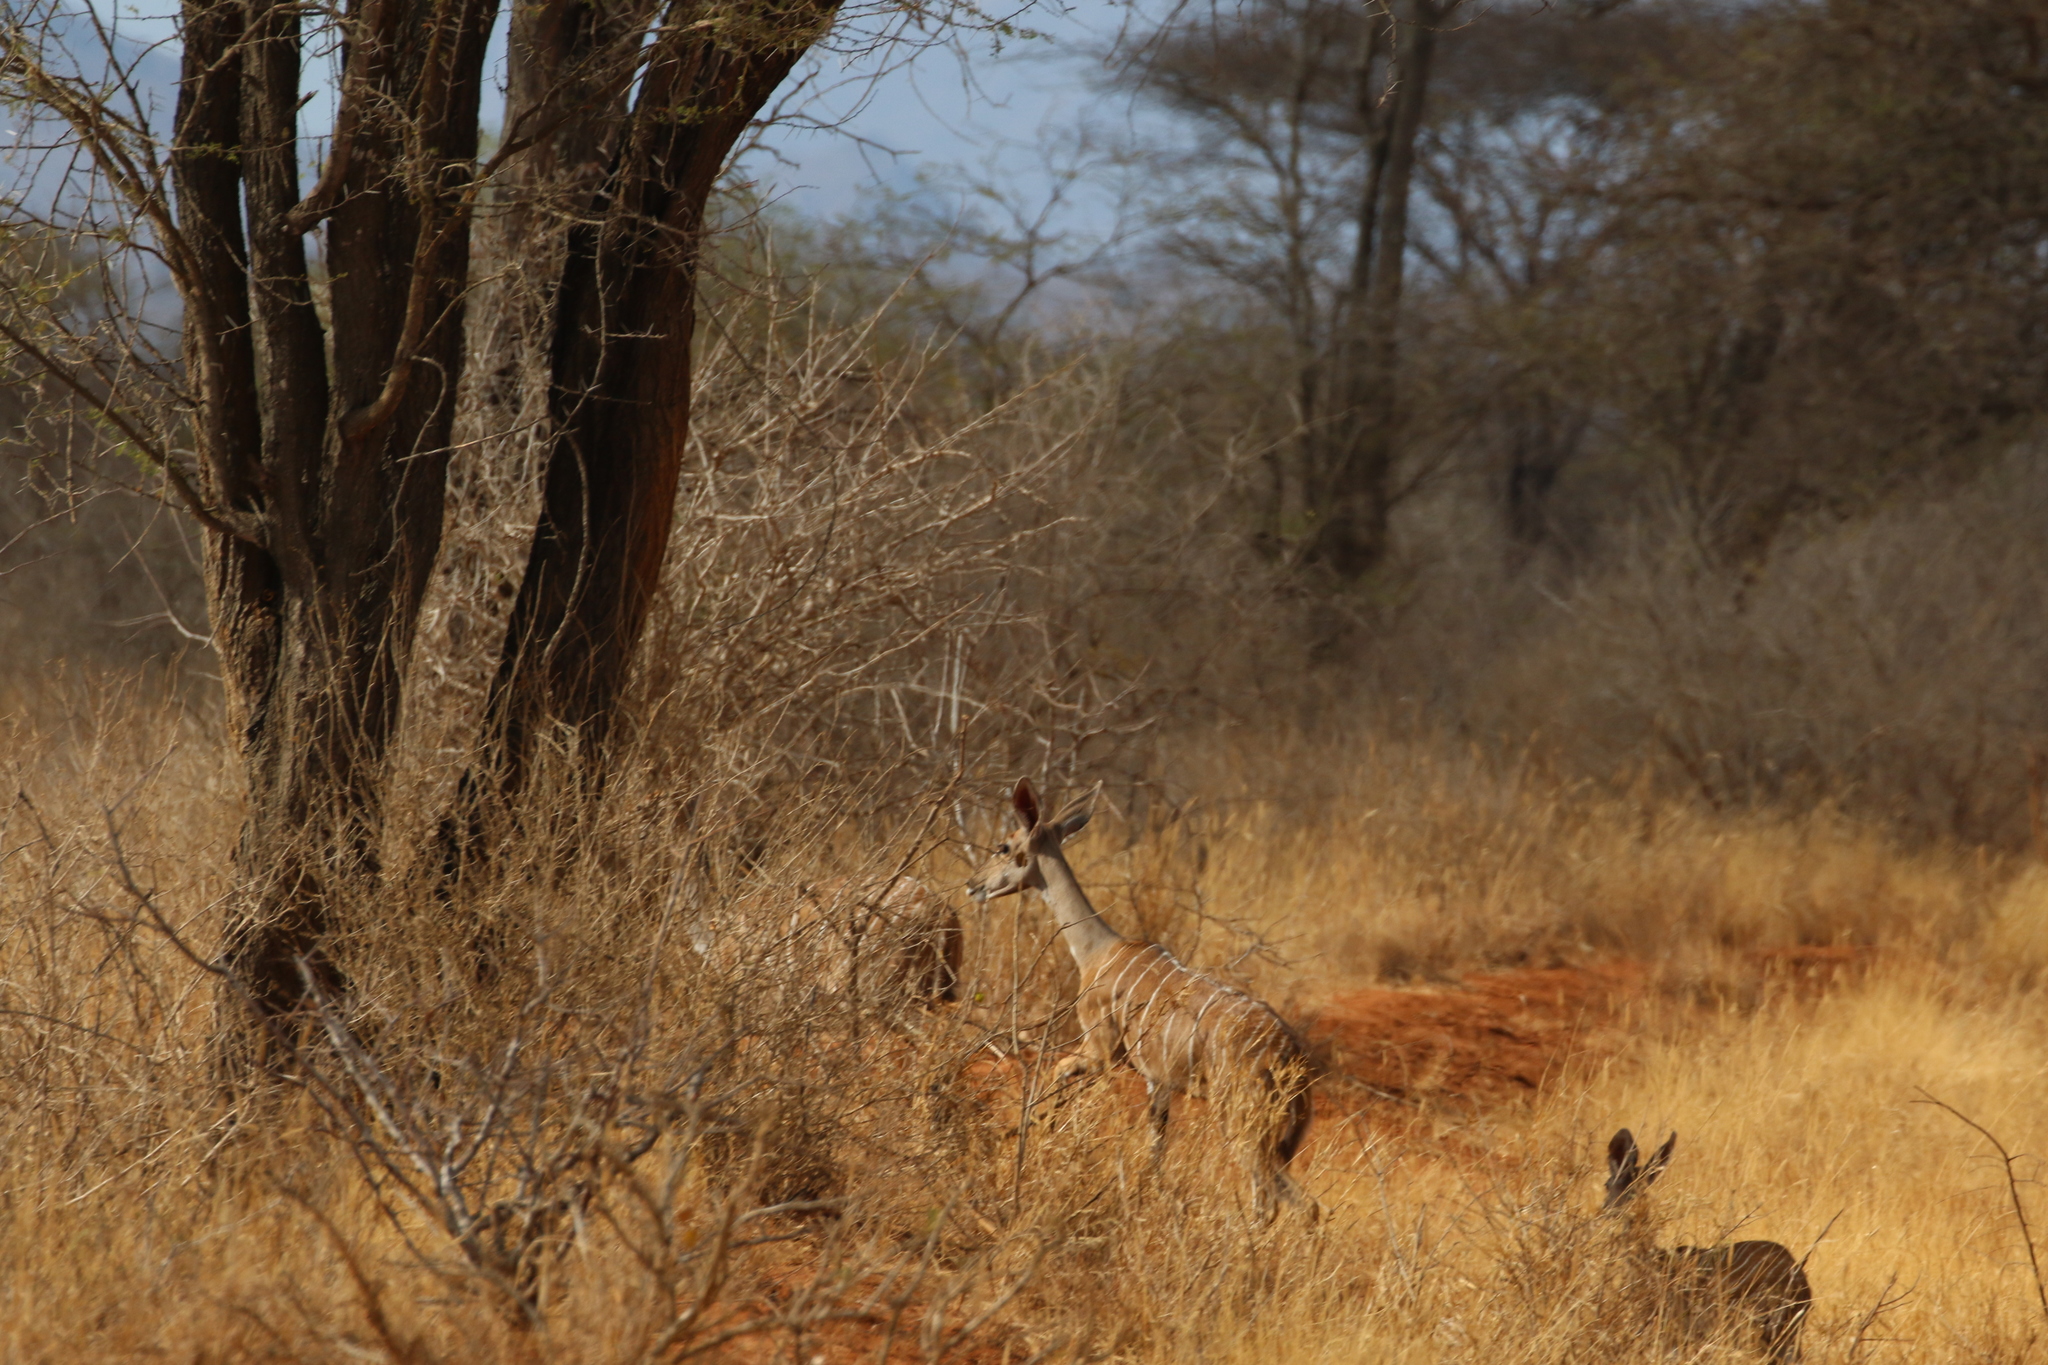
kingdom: Animalia
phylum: Chordata
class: Mammalia
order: Artiodactyla
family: Bovidae
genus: Tragelaphus
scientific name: Tragelaphus imberbis
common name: Lesser kudu
